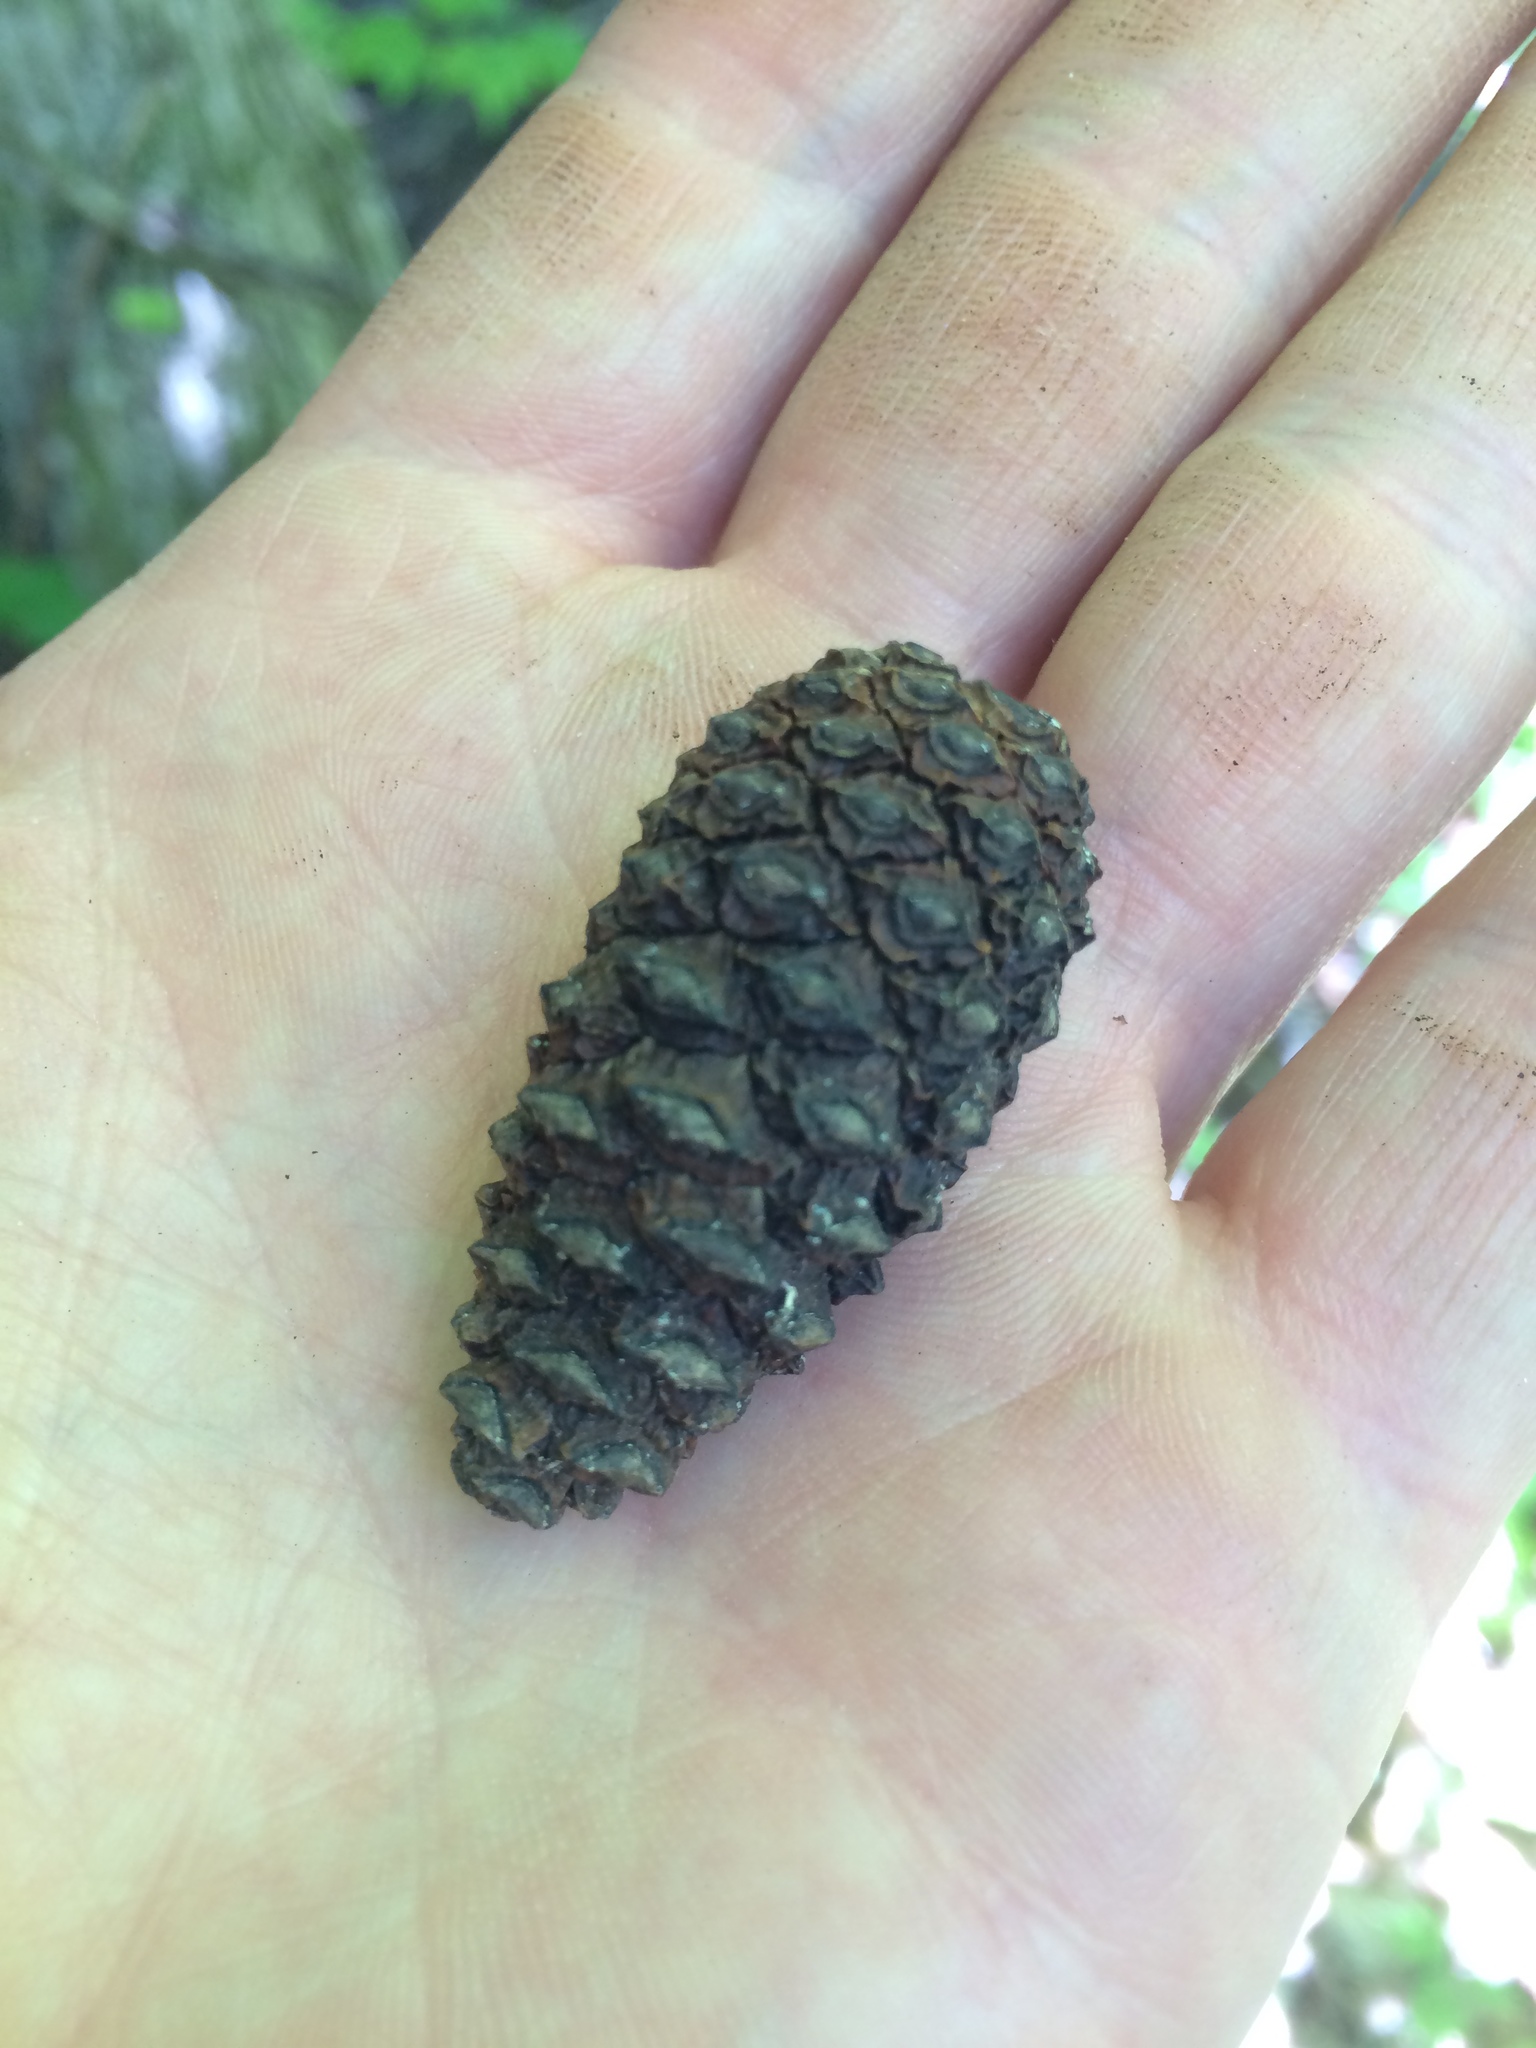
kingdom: Plantae
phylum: Tracheophyta
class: Pinopsida
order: Pinales
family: Pinaceae
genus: Picea
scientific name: Picea glauca
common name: White spruce
